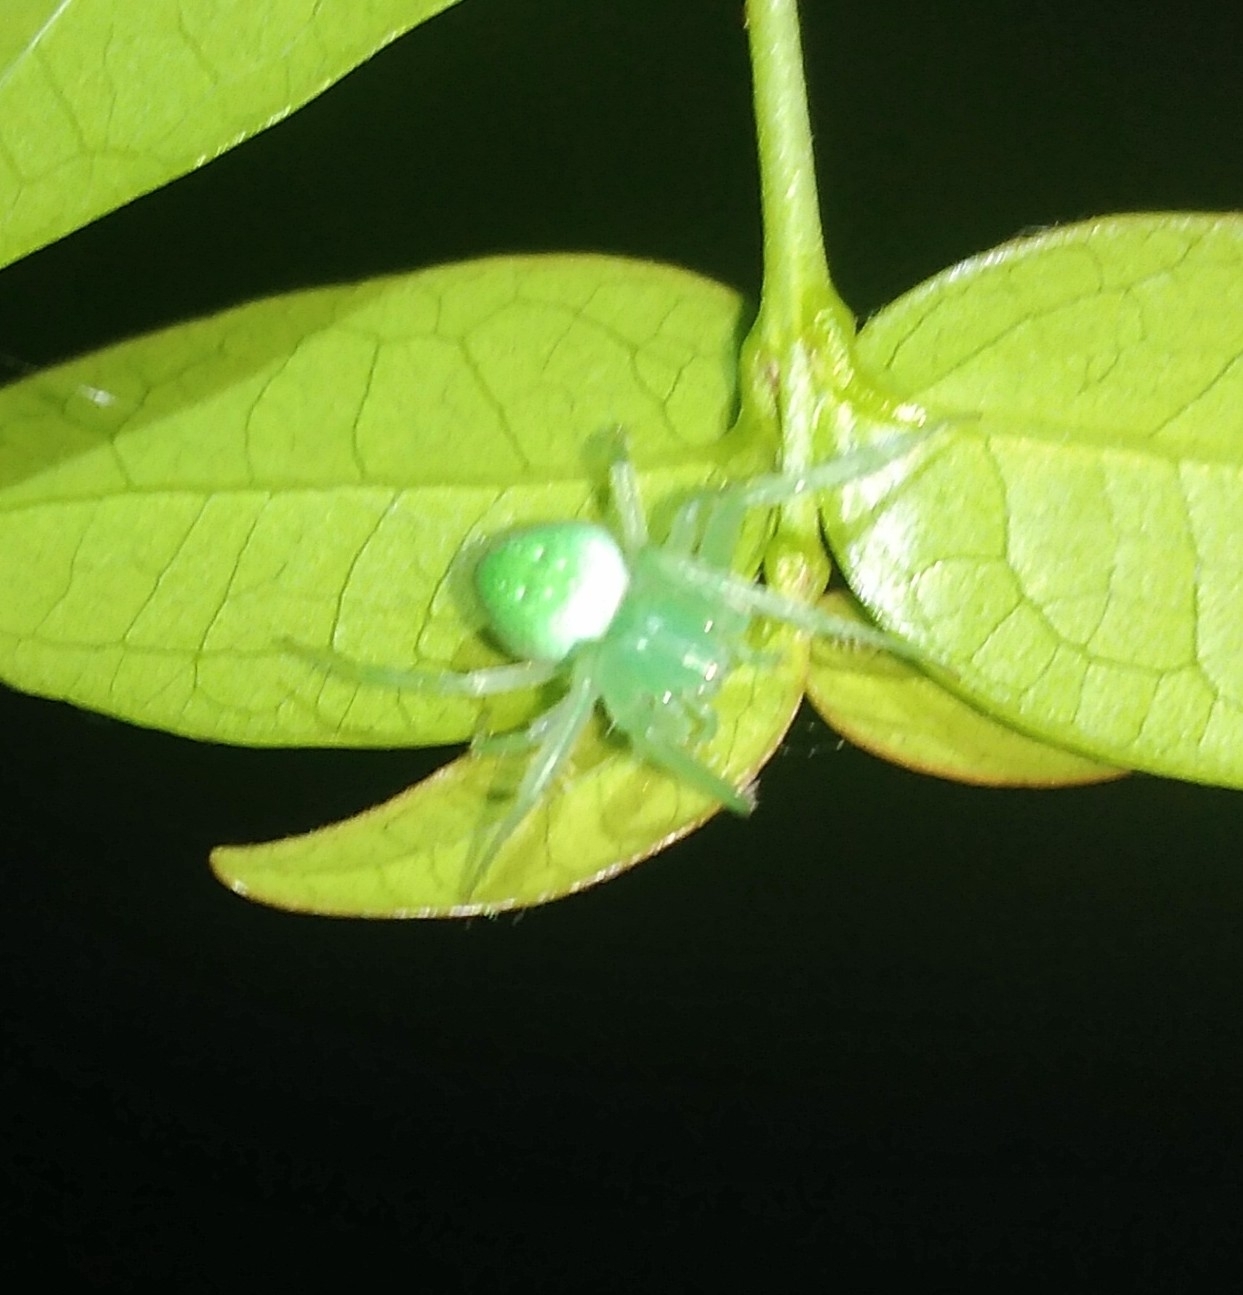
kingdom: Animalia
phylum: Arthropoda
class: Arachnida
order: Araneae
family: Araneidae
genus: Araneus
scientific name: Araneus uniformis
